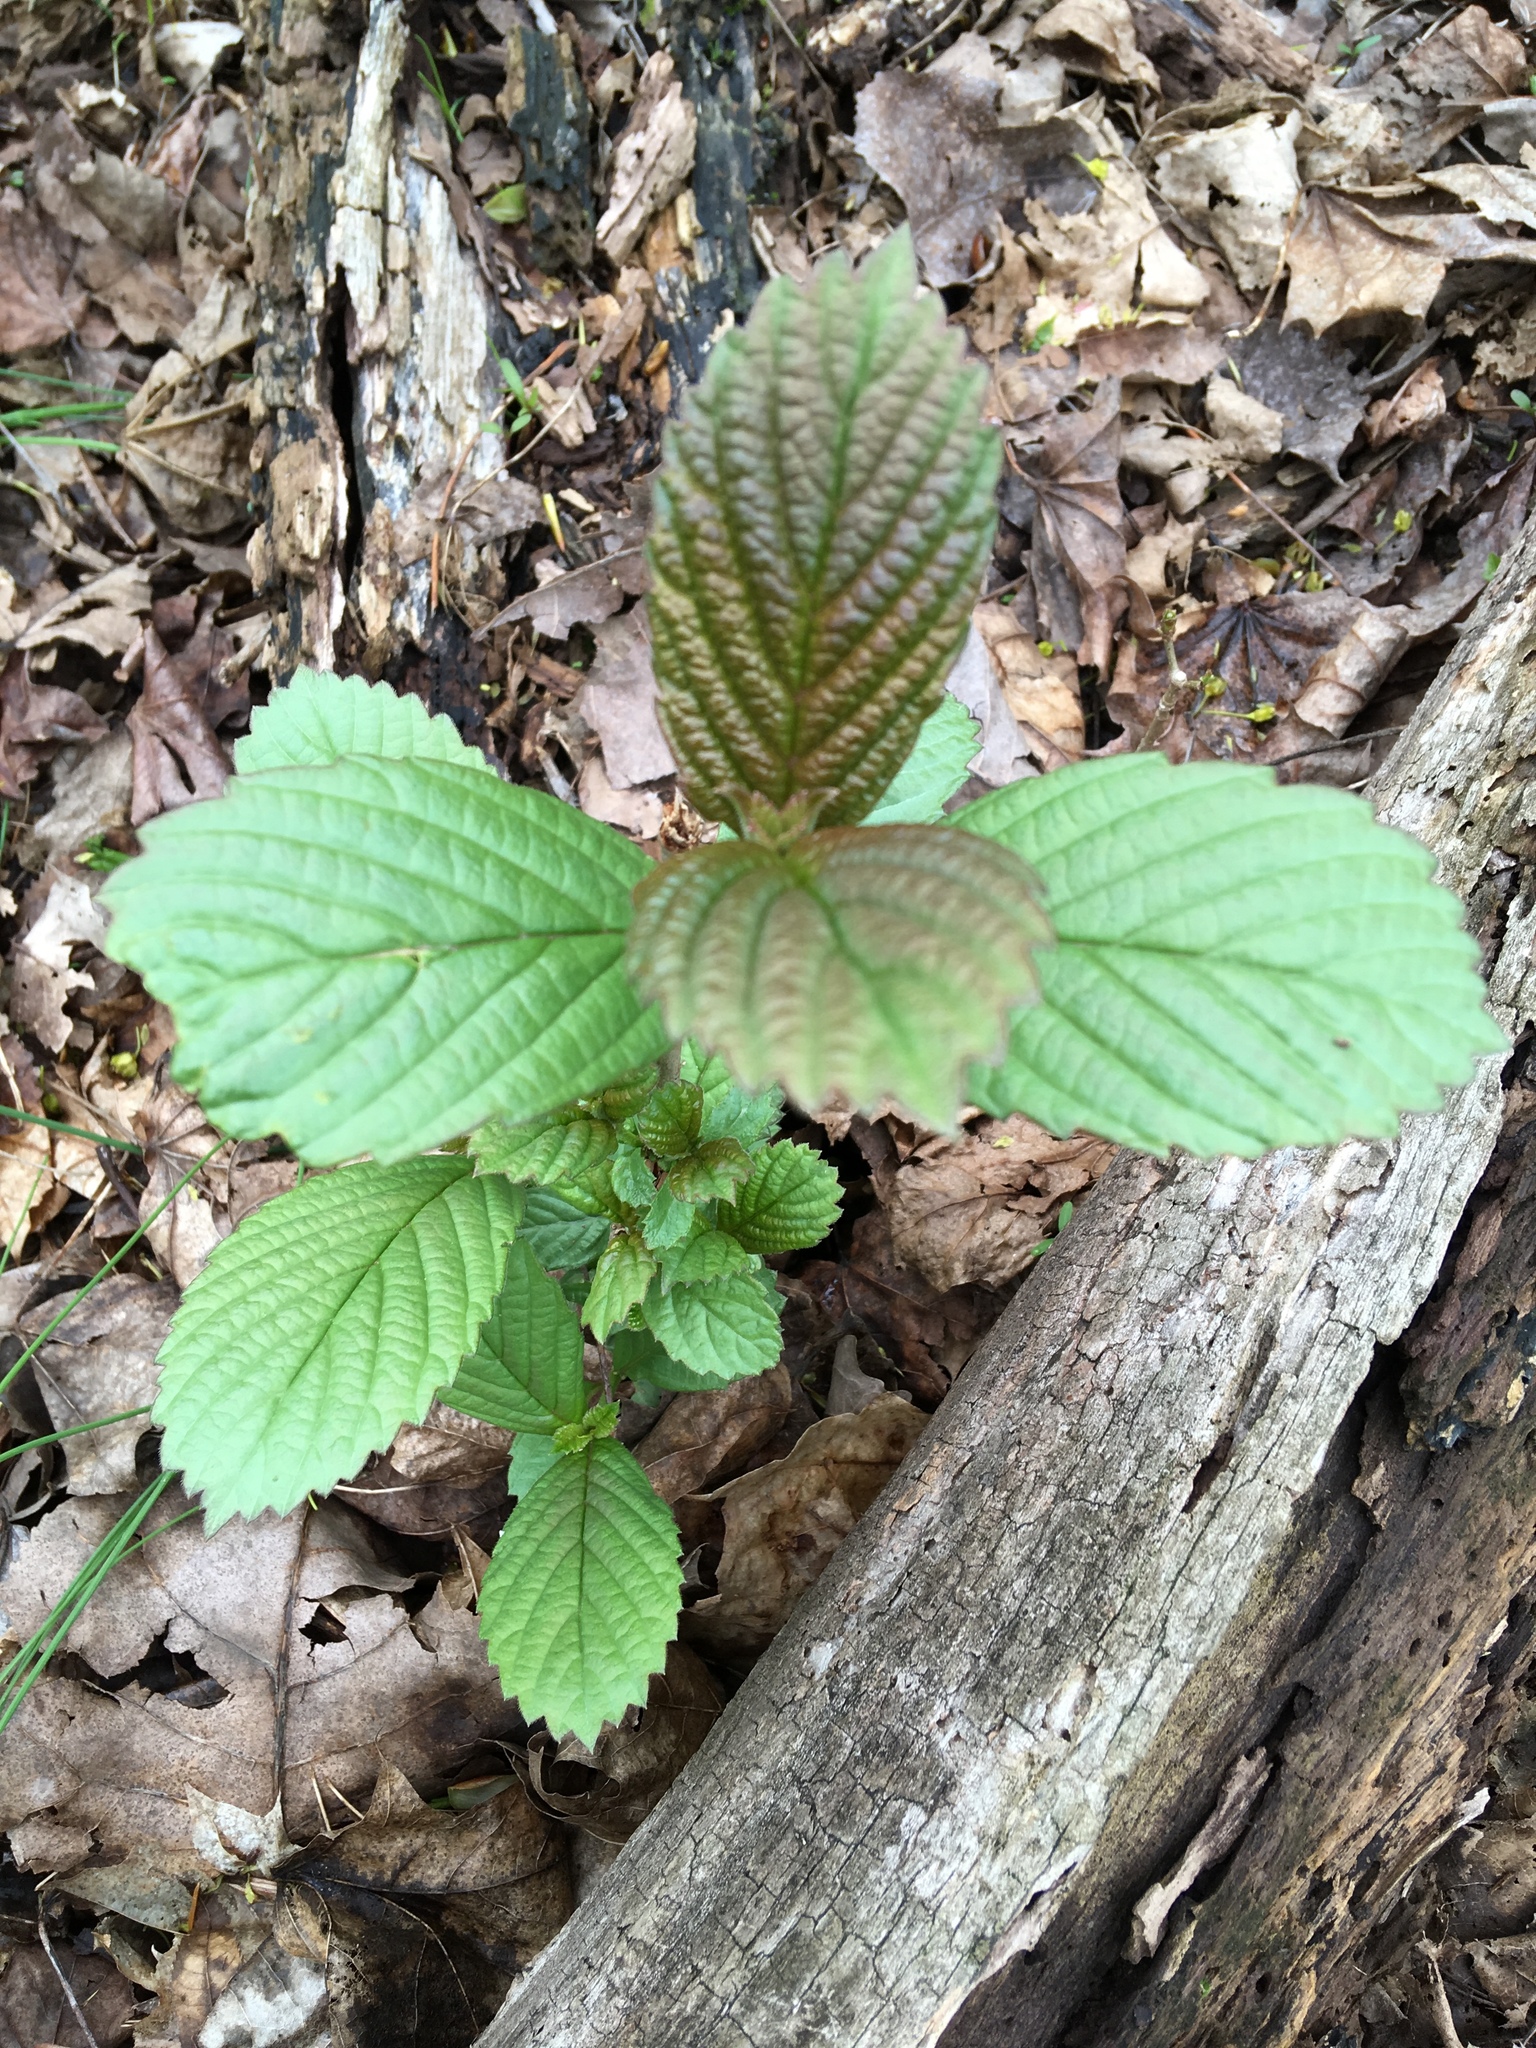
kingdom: Plantae
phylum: Tracheophyta
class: Magnoliopsida
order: Dipsacales
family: Viburnaceae
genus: Viburnum
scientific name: Viburnum sieboldii
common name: Siebold's arrowwood
